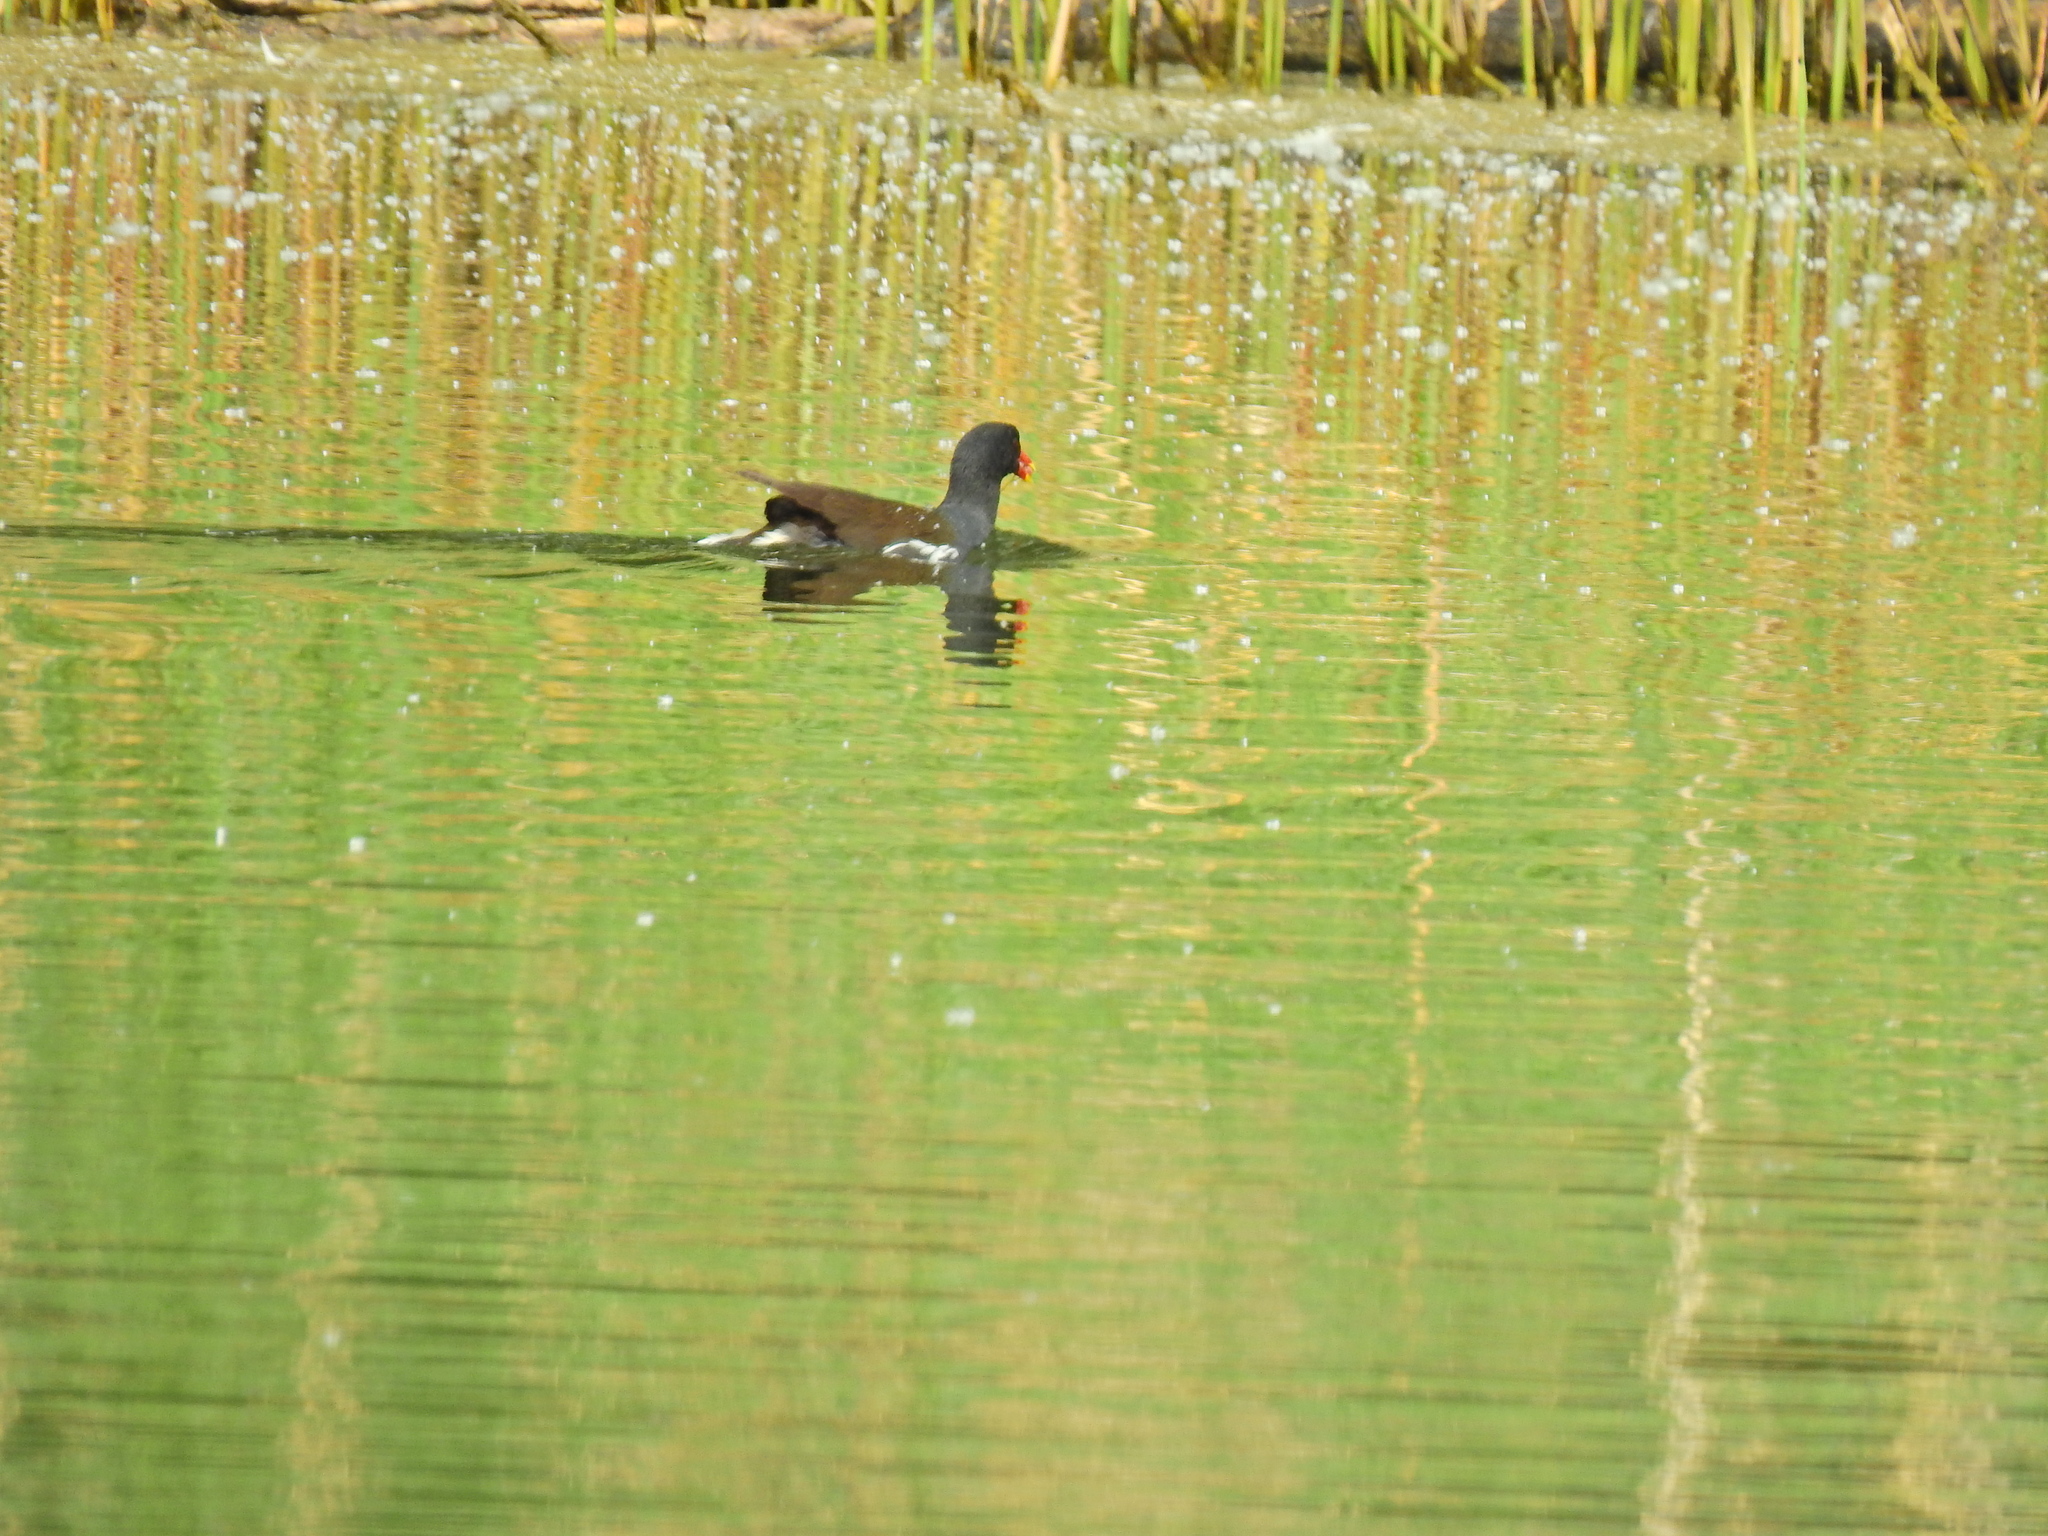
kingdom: Animalia
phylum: Chordata
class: Aves
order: Gruiformes
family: Rallidae
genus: Gallinula
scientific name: Gallinula chloropus
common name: Common moorhen
